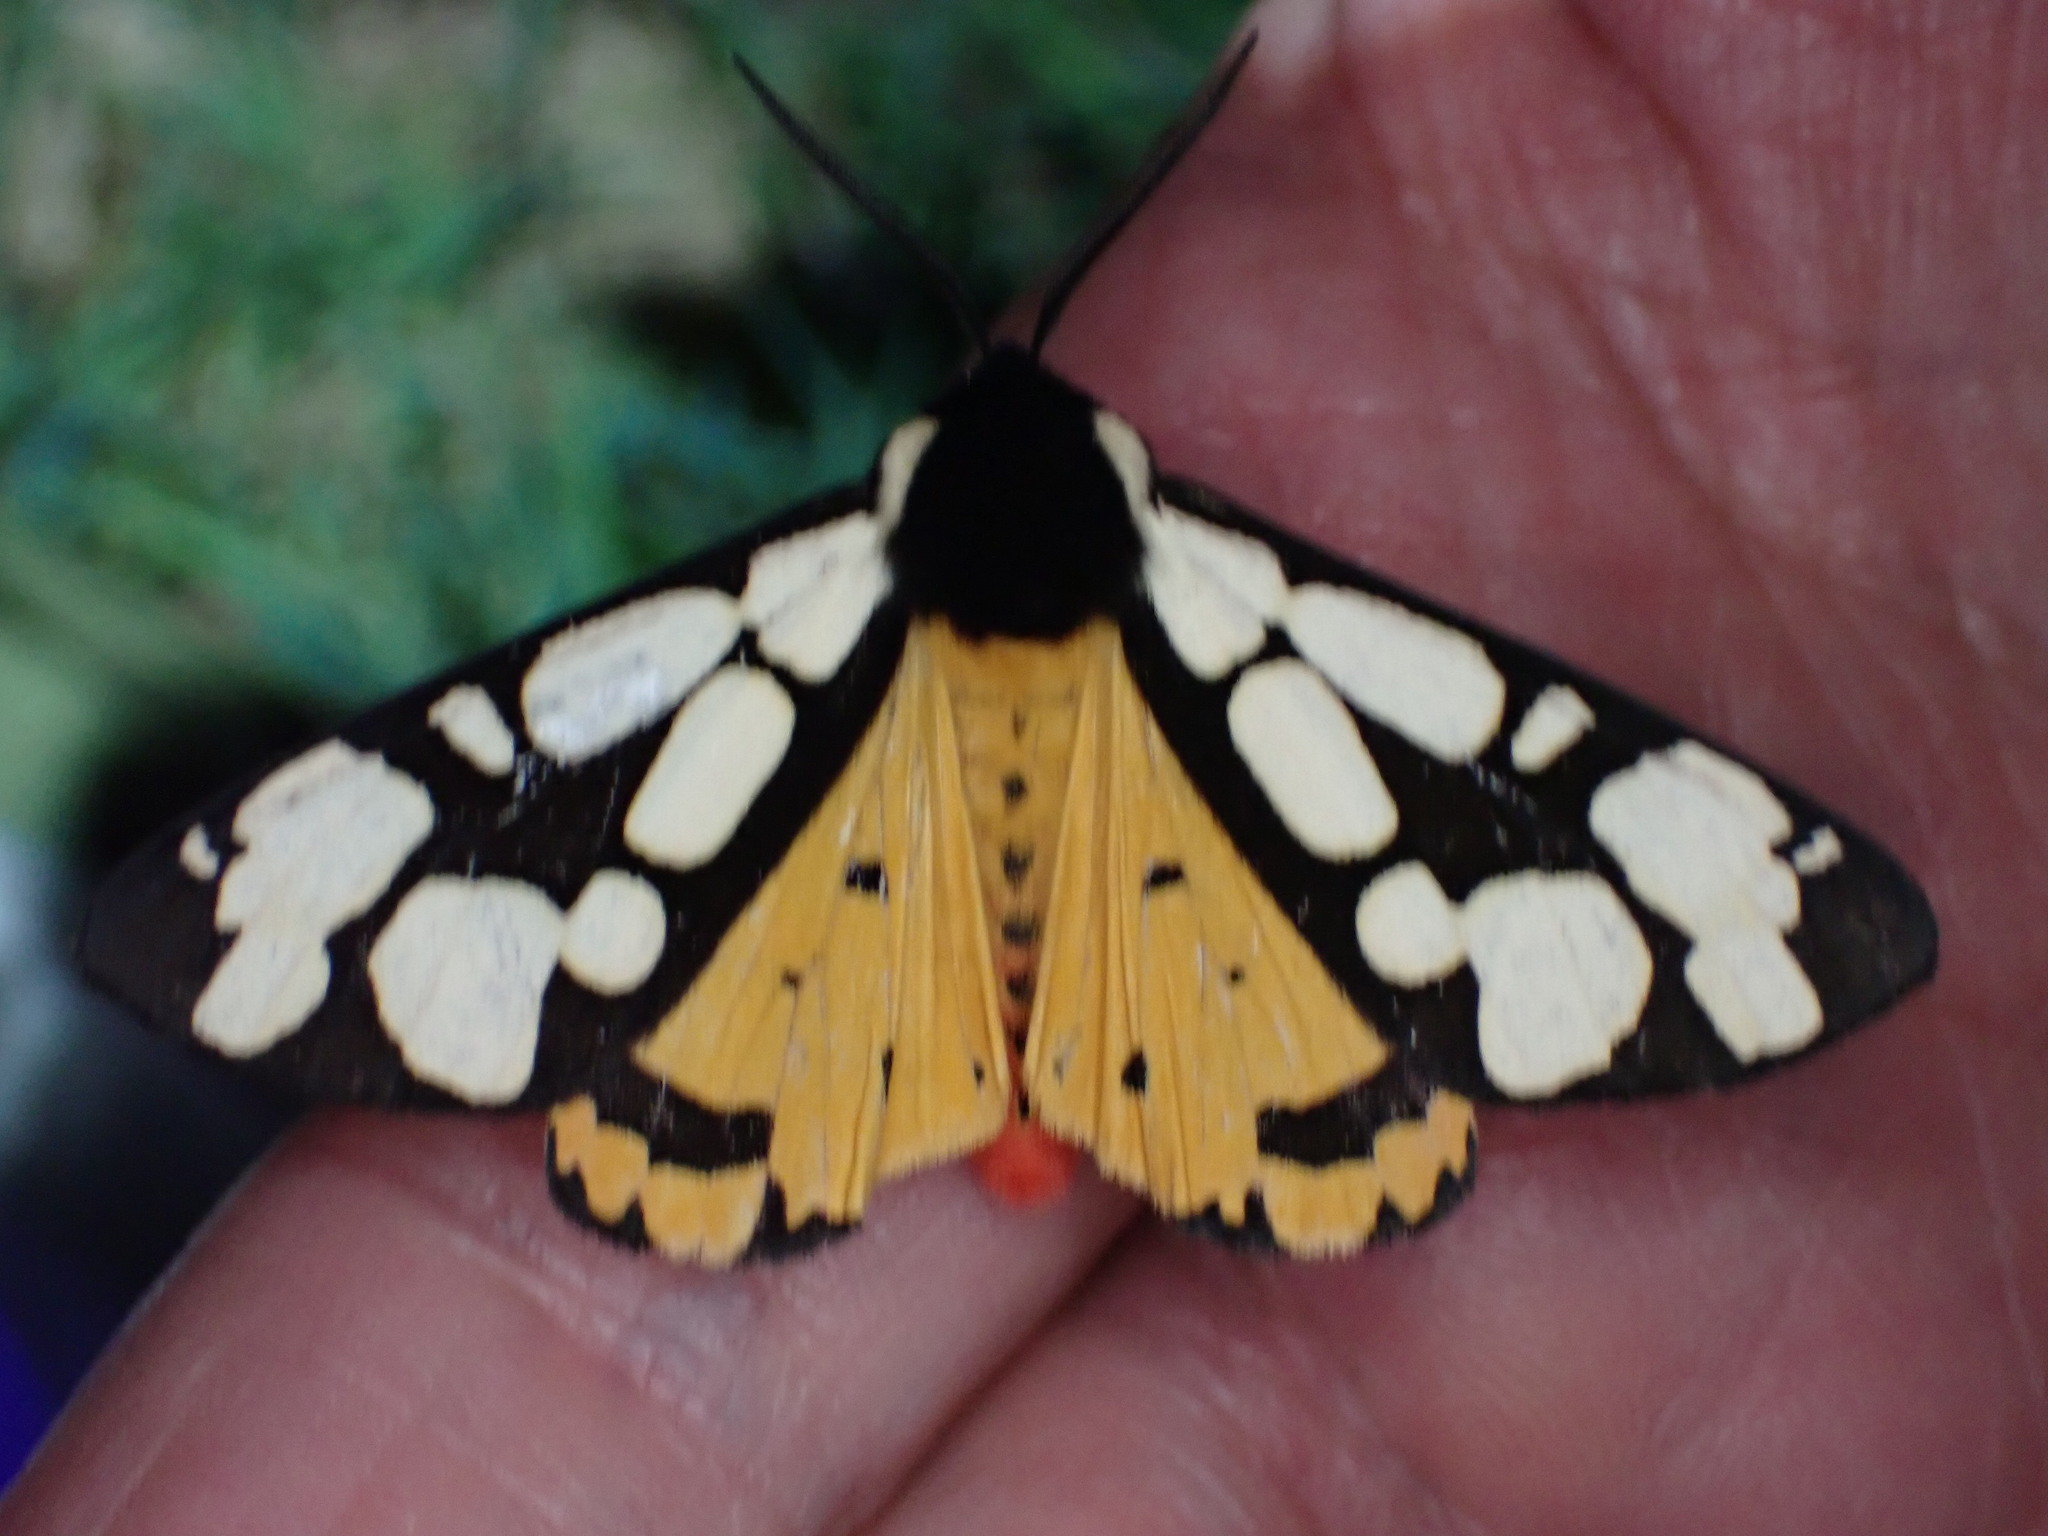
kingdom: Animalia
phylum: Arthropoda
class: Insecta
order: Lepidoptera
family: Erebidae
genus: Epicallia
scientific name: Epicallia villica
